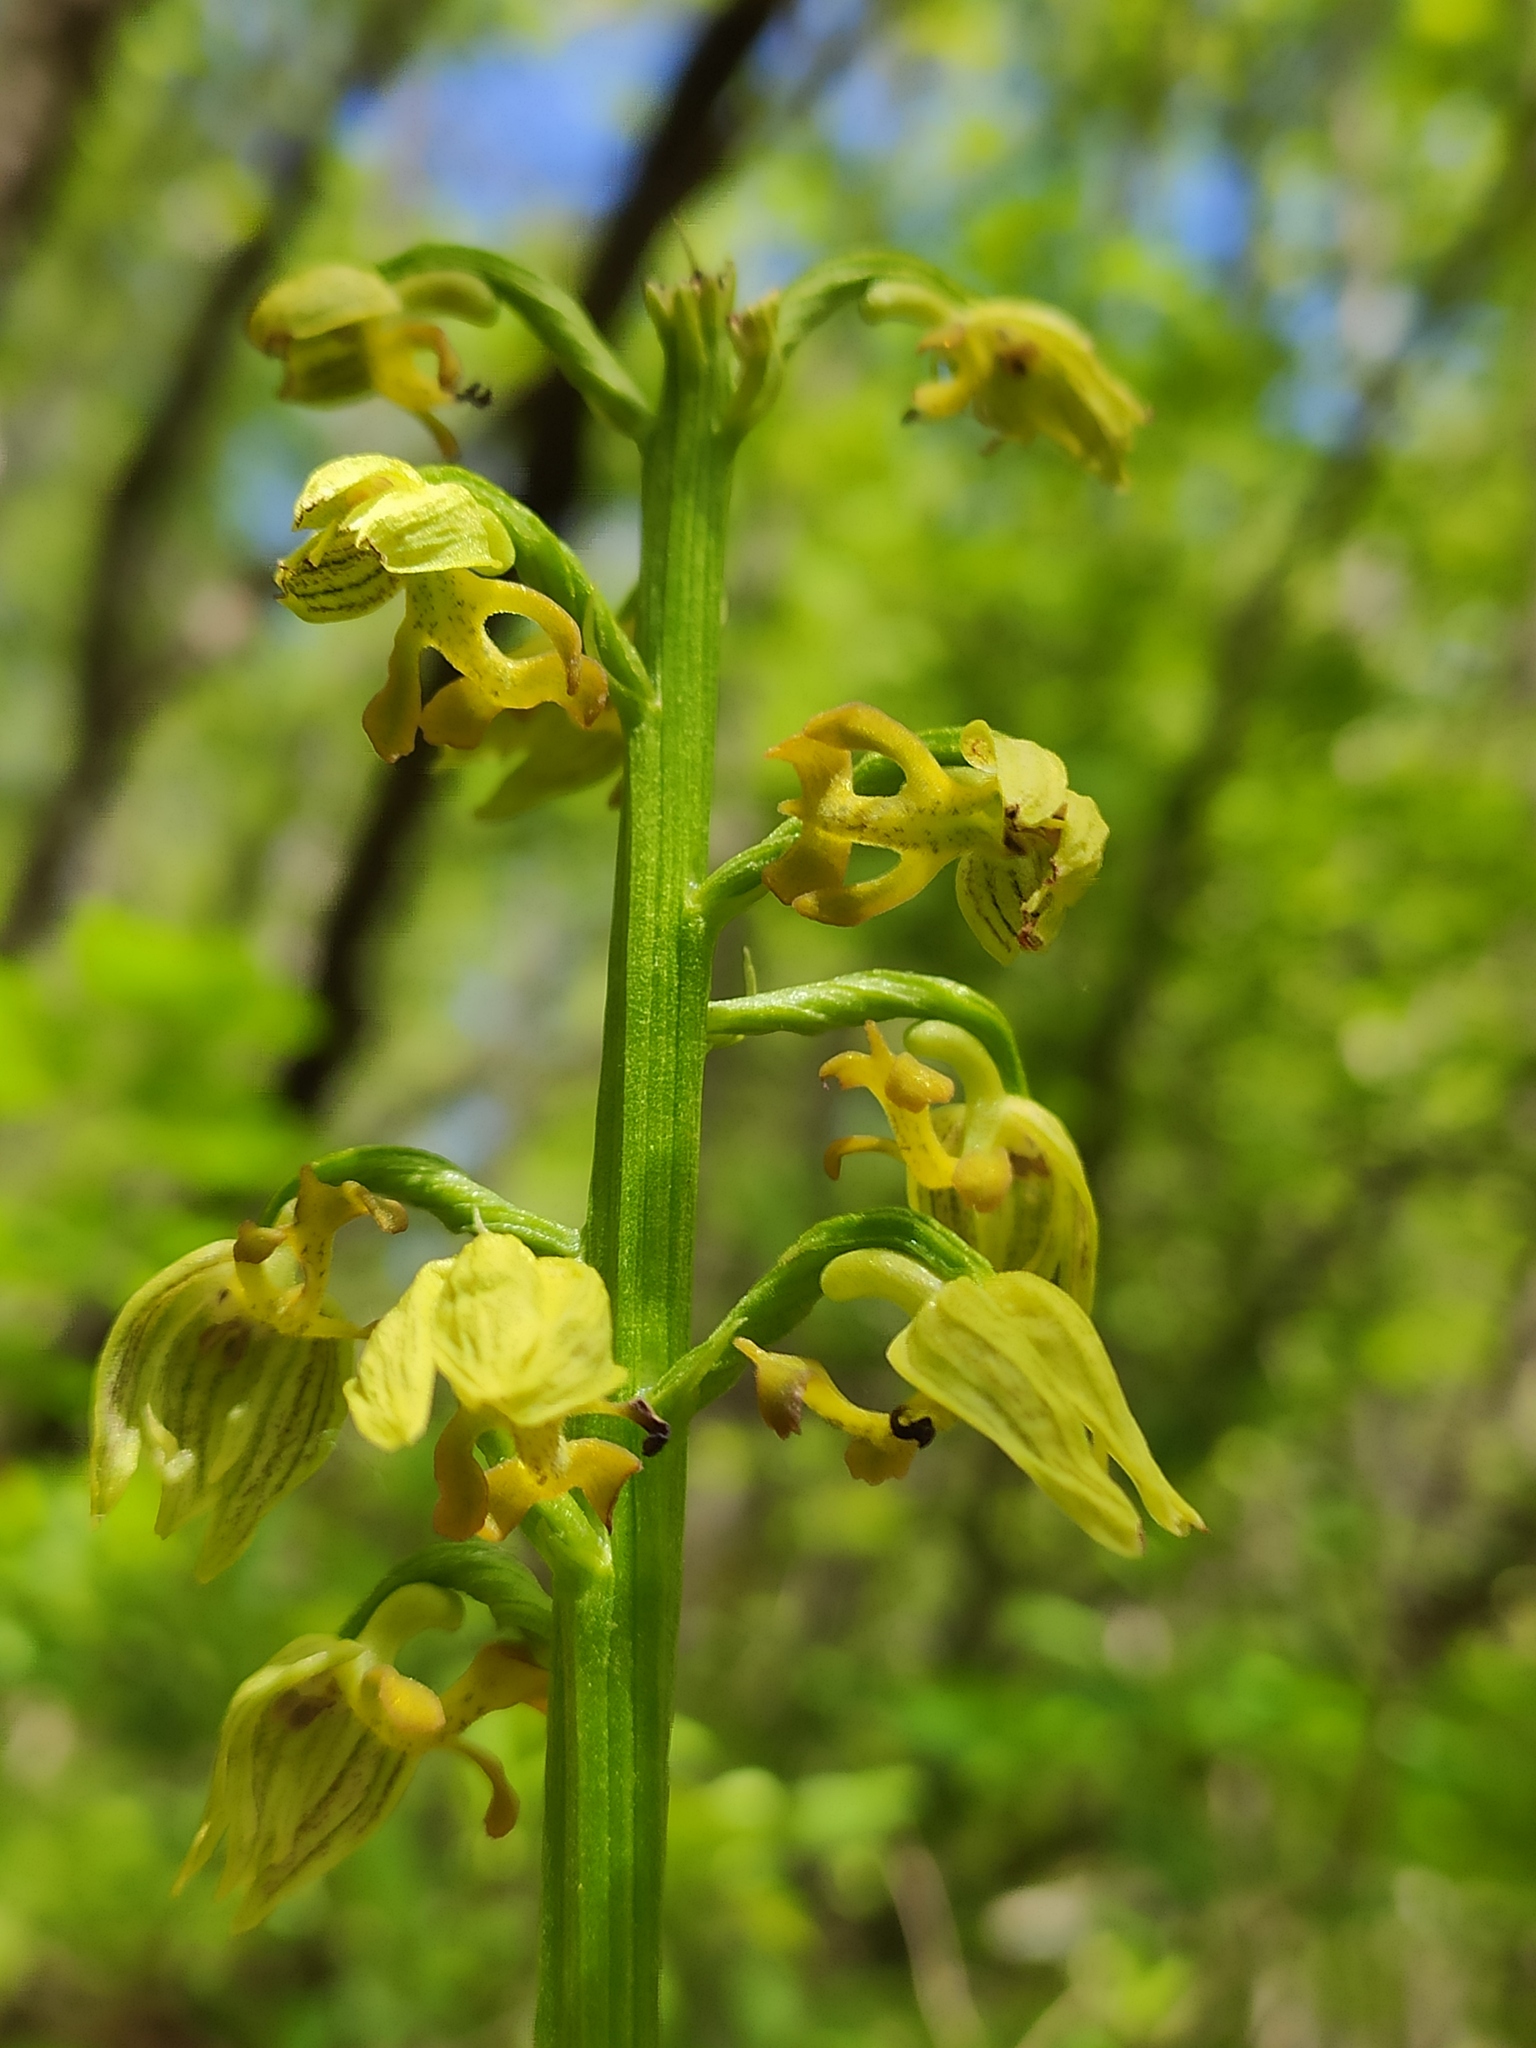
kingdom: Plantae
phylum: Tracheophyta
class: Liliopsida
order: Asparagales
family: Orchidaceae
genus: Orchis
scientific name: Orchis punctulata
